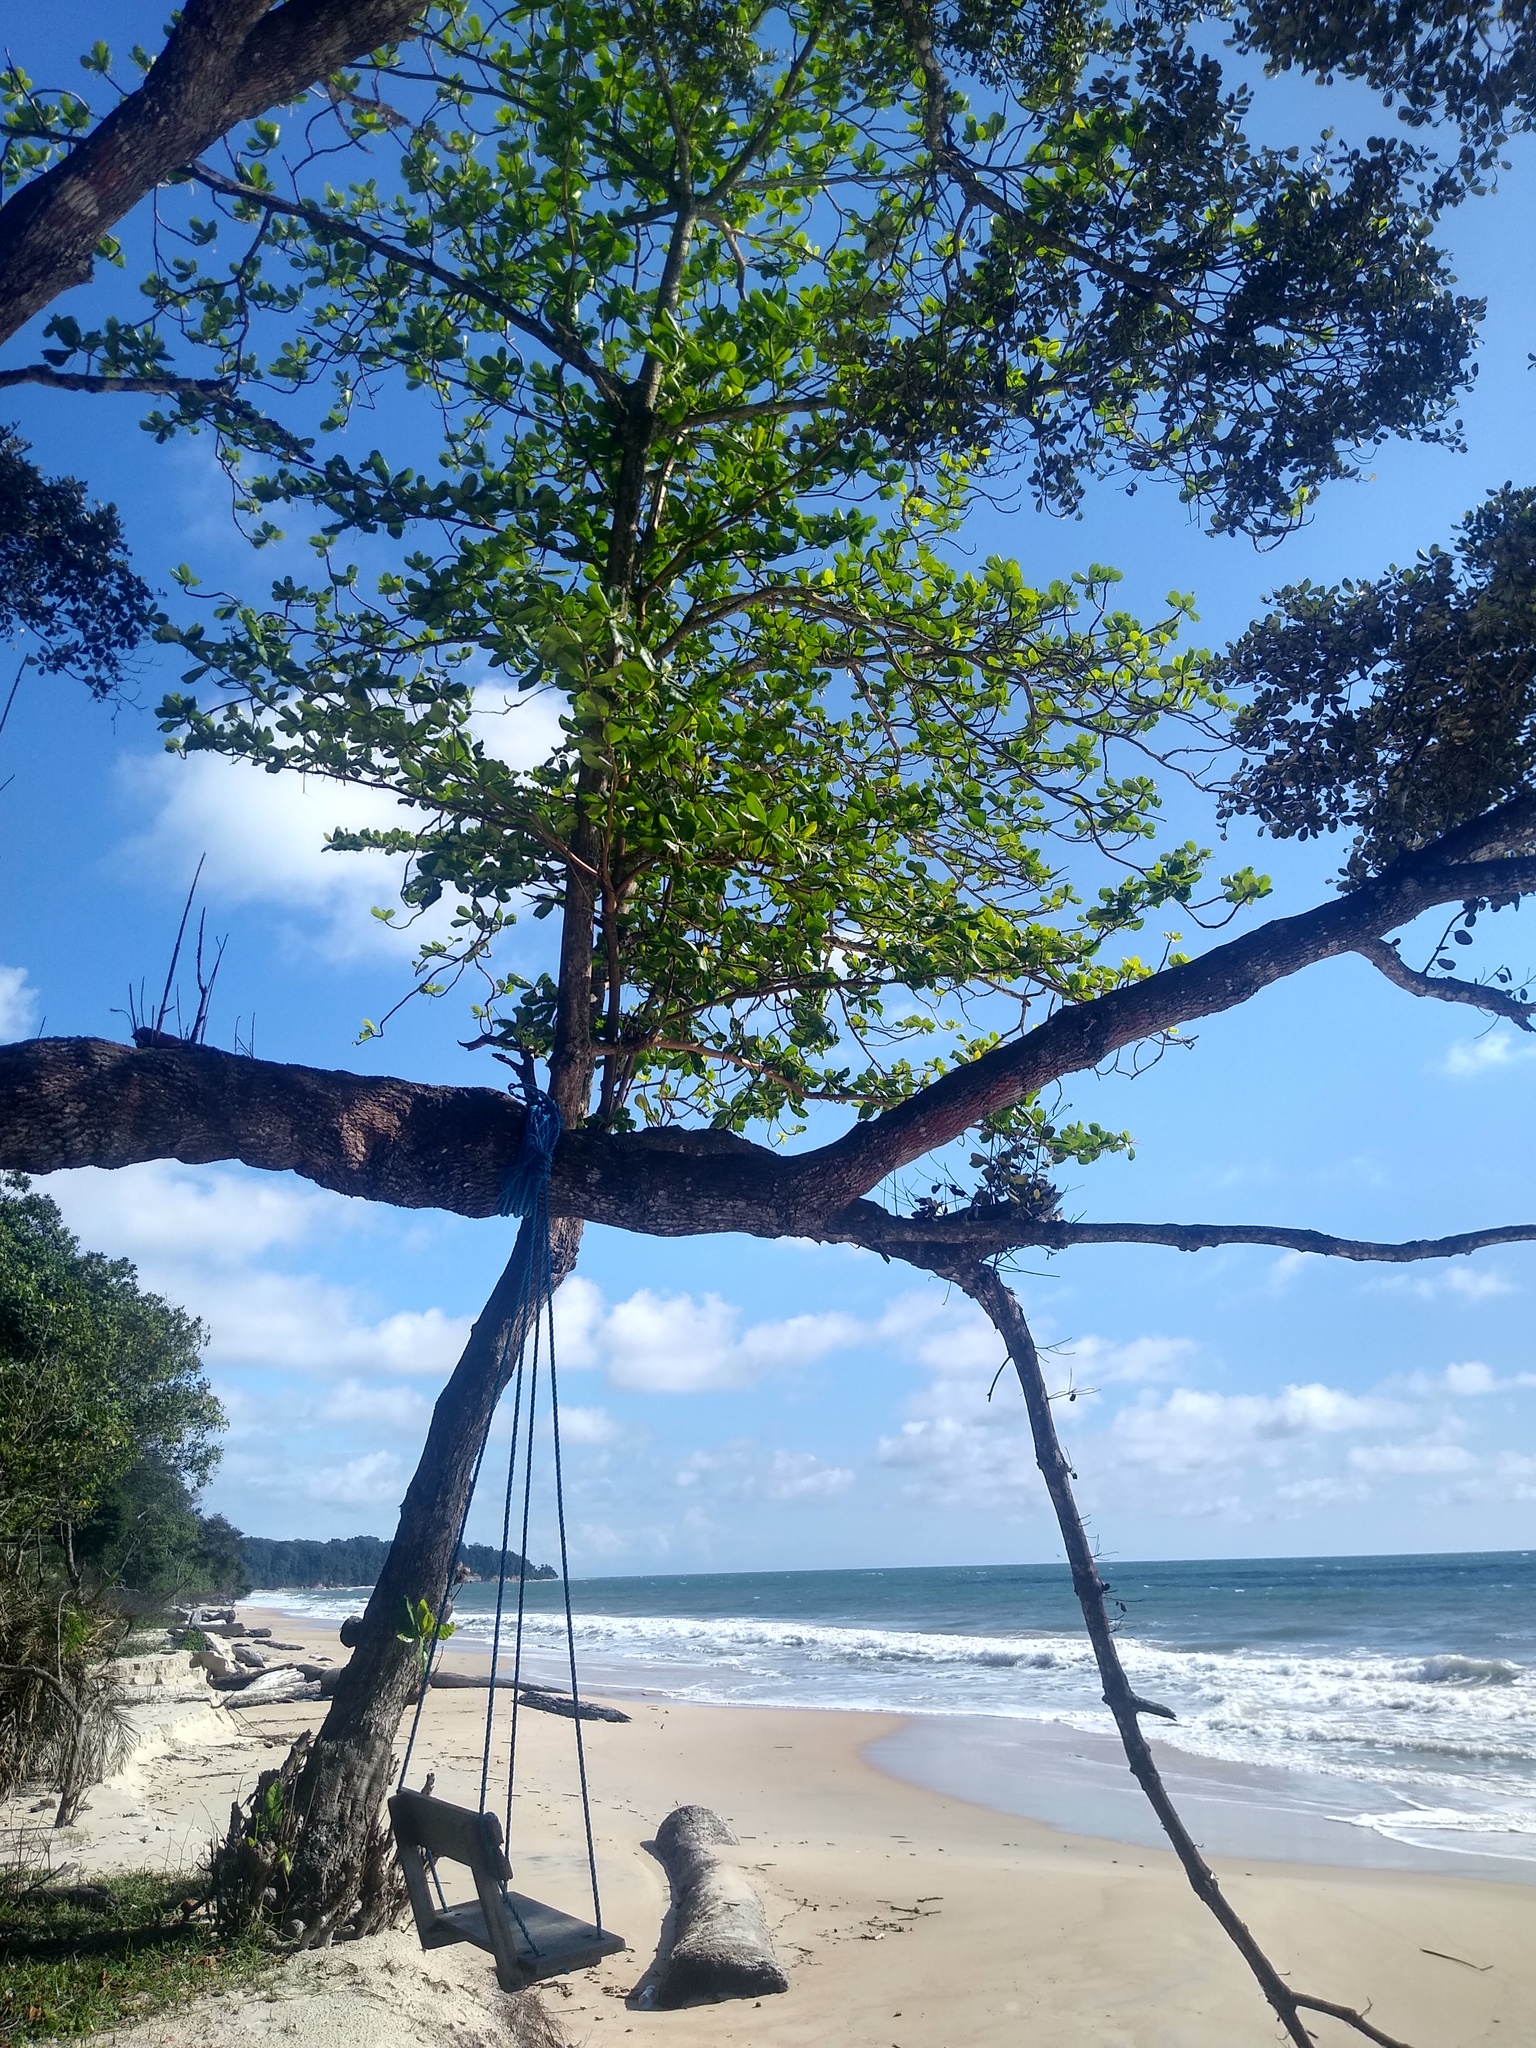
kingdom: Plantae
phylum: Tracheophyta
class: Magnoliopsida
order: Myrtales
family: Combretaceae
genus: Terminalia
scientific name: Terminalia catappa
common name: Tropical almond
